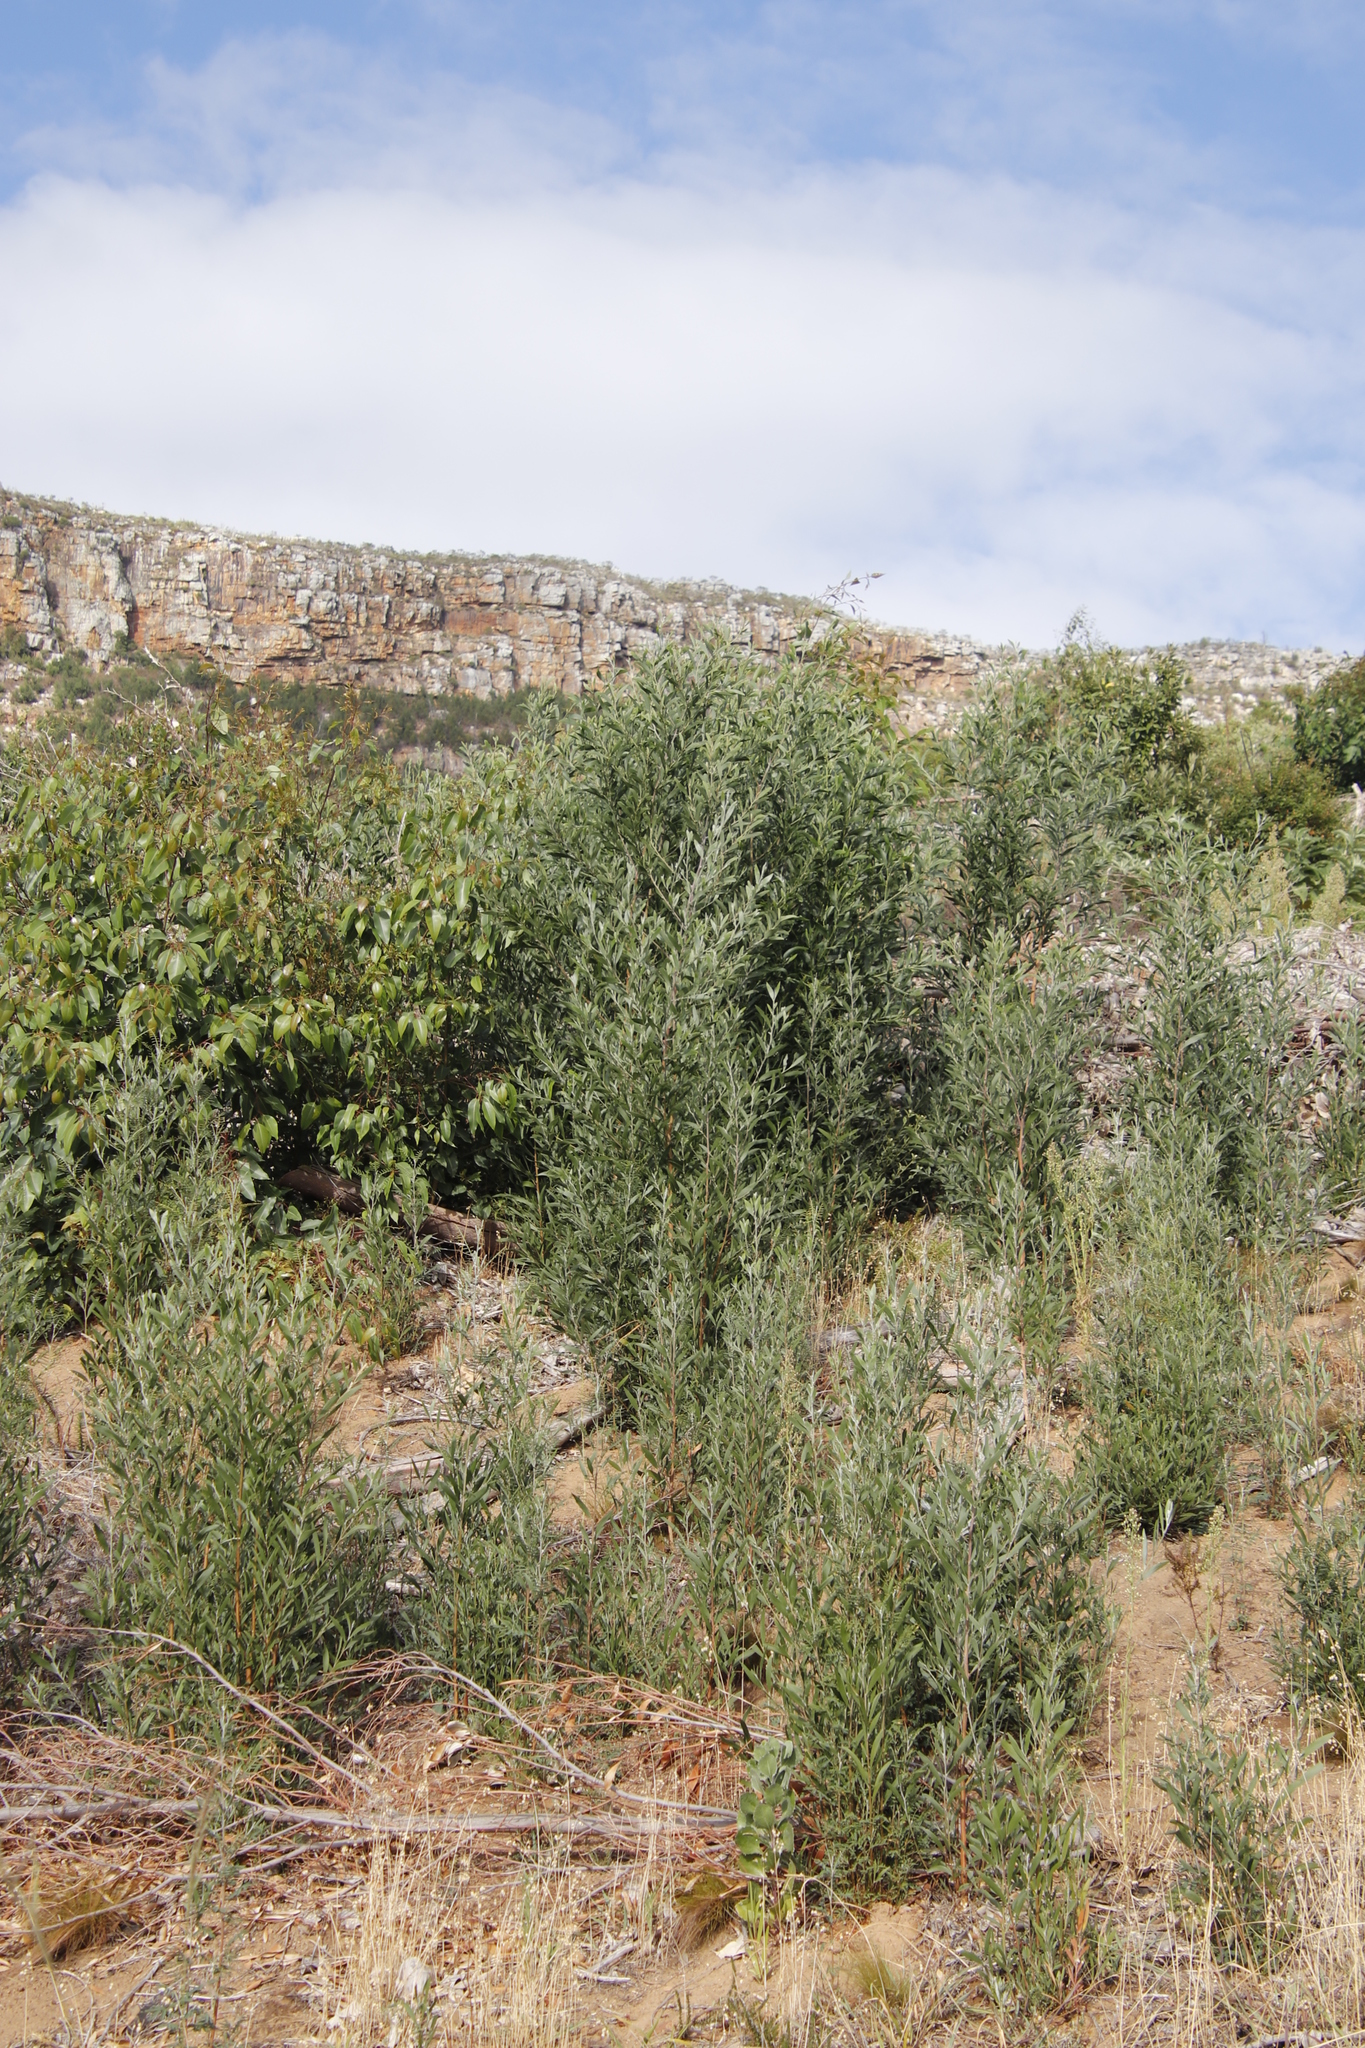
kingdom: Plantae
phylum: Tracheophyta
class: Magnoliopsida
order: Fabales
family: Fabaceae
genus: Acacia
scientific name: Acacia melanoxylon
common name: Blackwood
